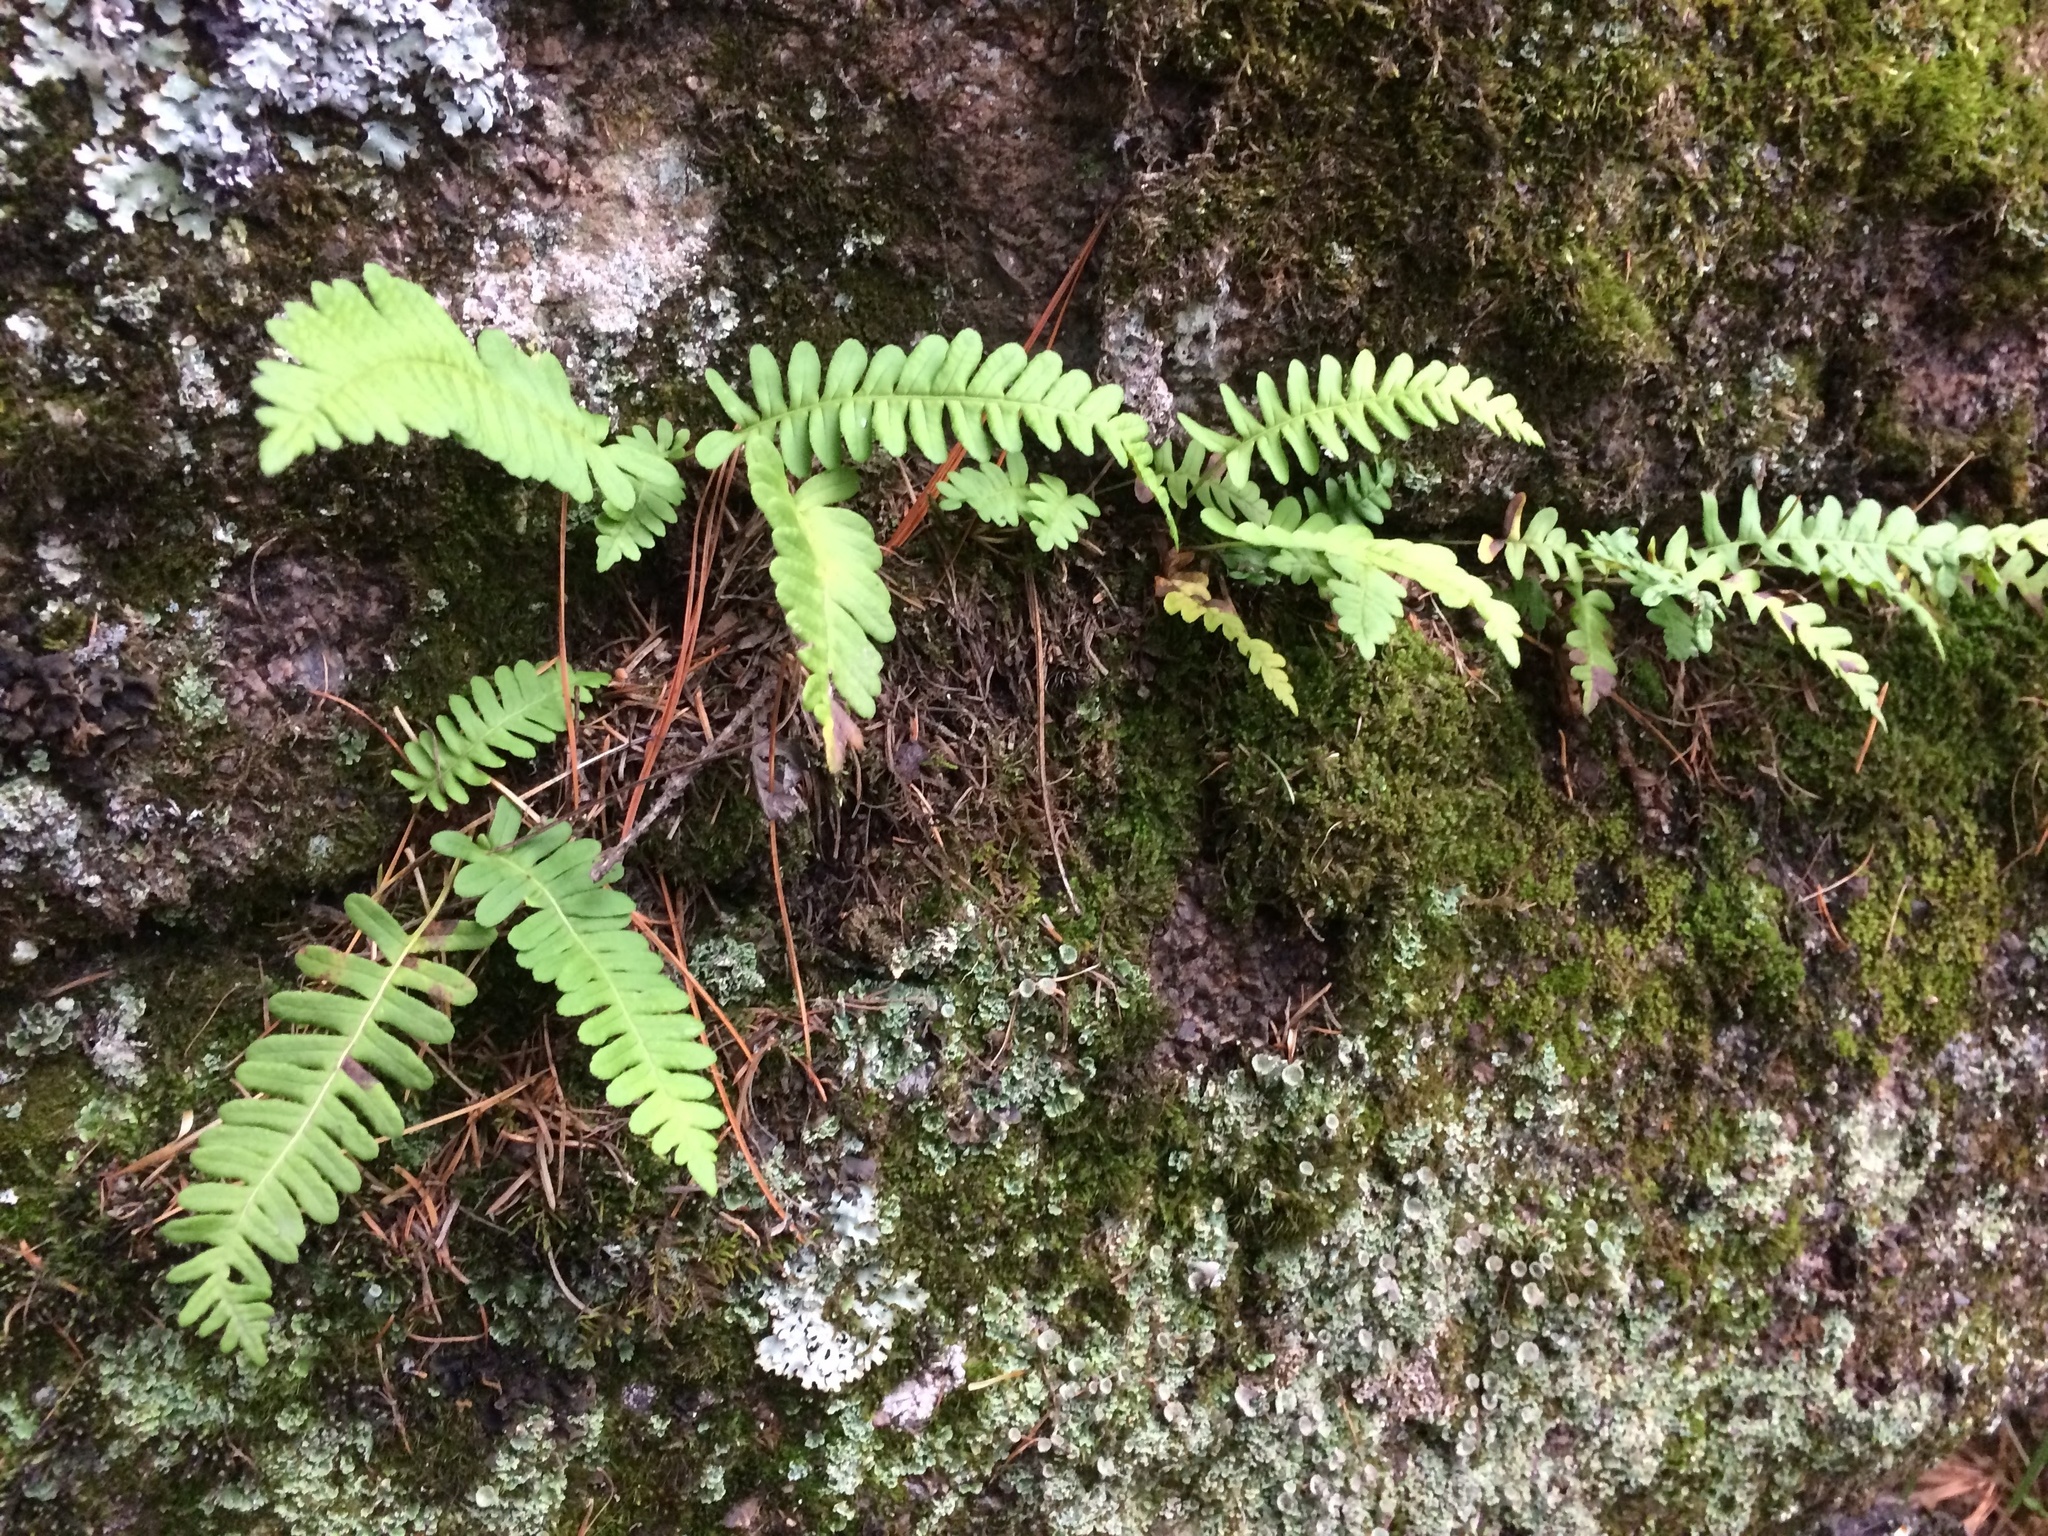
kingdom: Plantae
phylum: Tracheophyta
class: Polypodiopsida
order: Polypodiales
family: Polypodiaceae
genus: Polypodium
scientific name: Polypodium vulgare
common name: Common polypody
